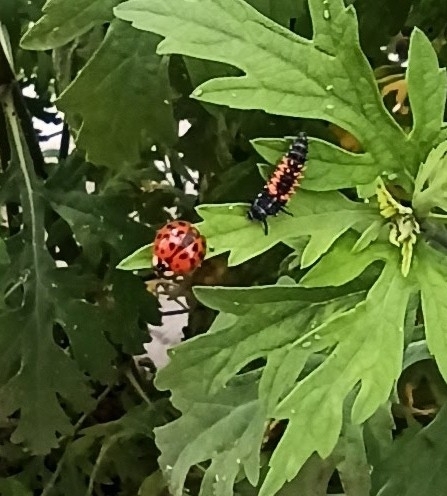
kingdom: Animalia
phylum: Arthropoda
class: Insecta
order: Coleoptera
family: Coccinellidae
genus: Harmonia
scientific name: Harmonia axyridis
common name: Harlequin ladybird
